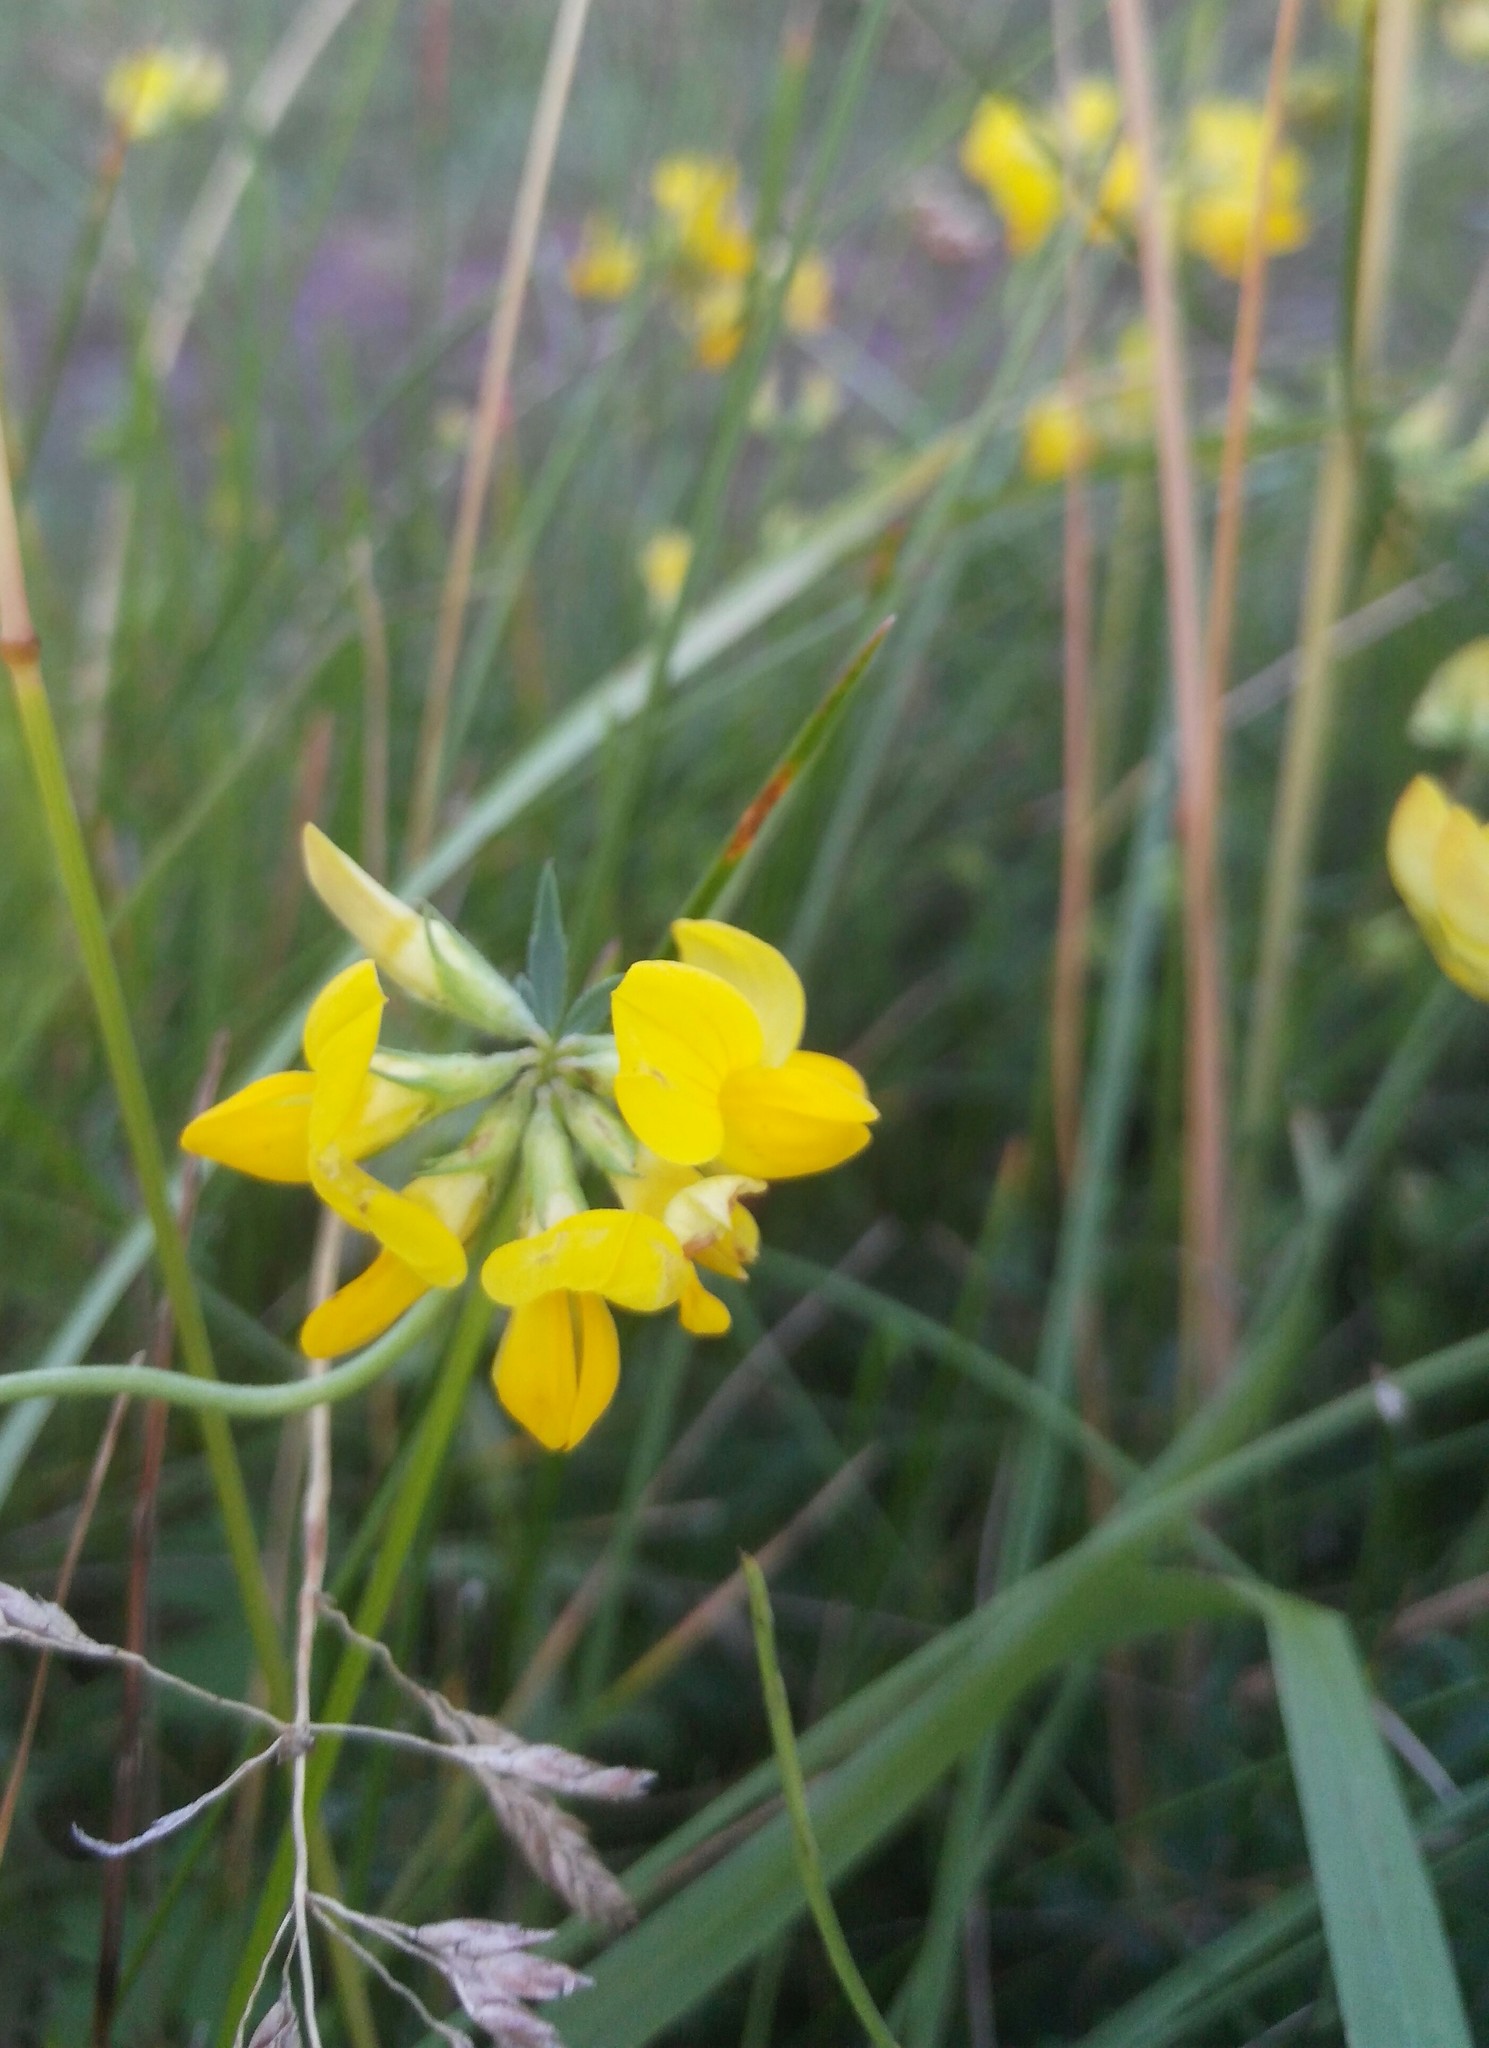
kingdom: Plantae
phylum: Tracheophyta
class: Magnoliopsida
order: Fabales
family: Fabaceae
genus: Lotus
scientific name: Lotus corniculatus
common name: Common bird's-foot-trefoil
